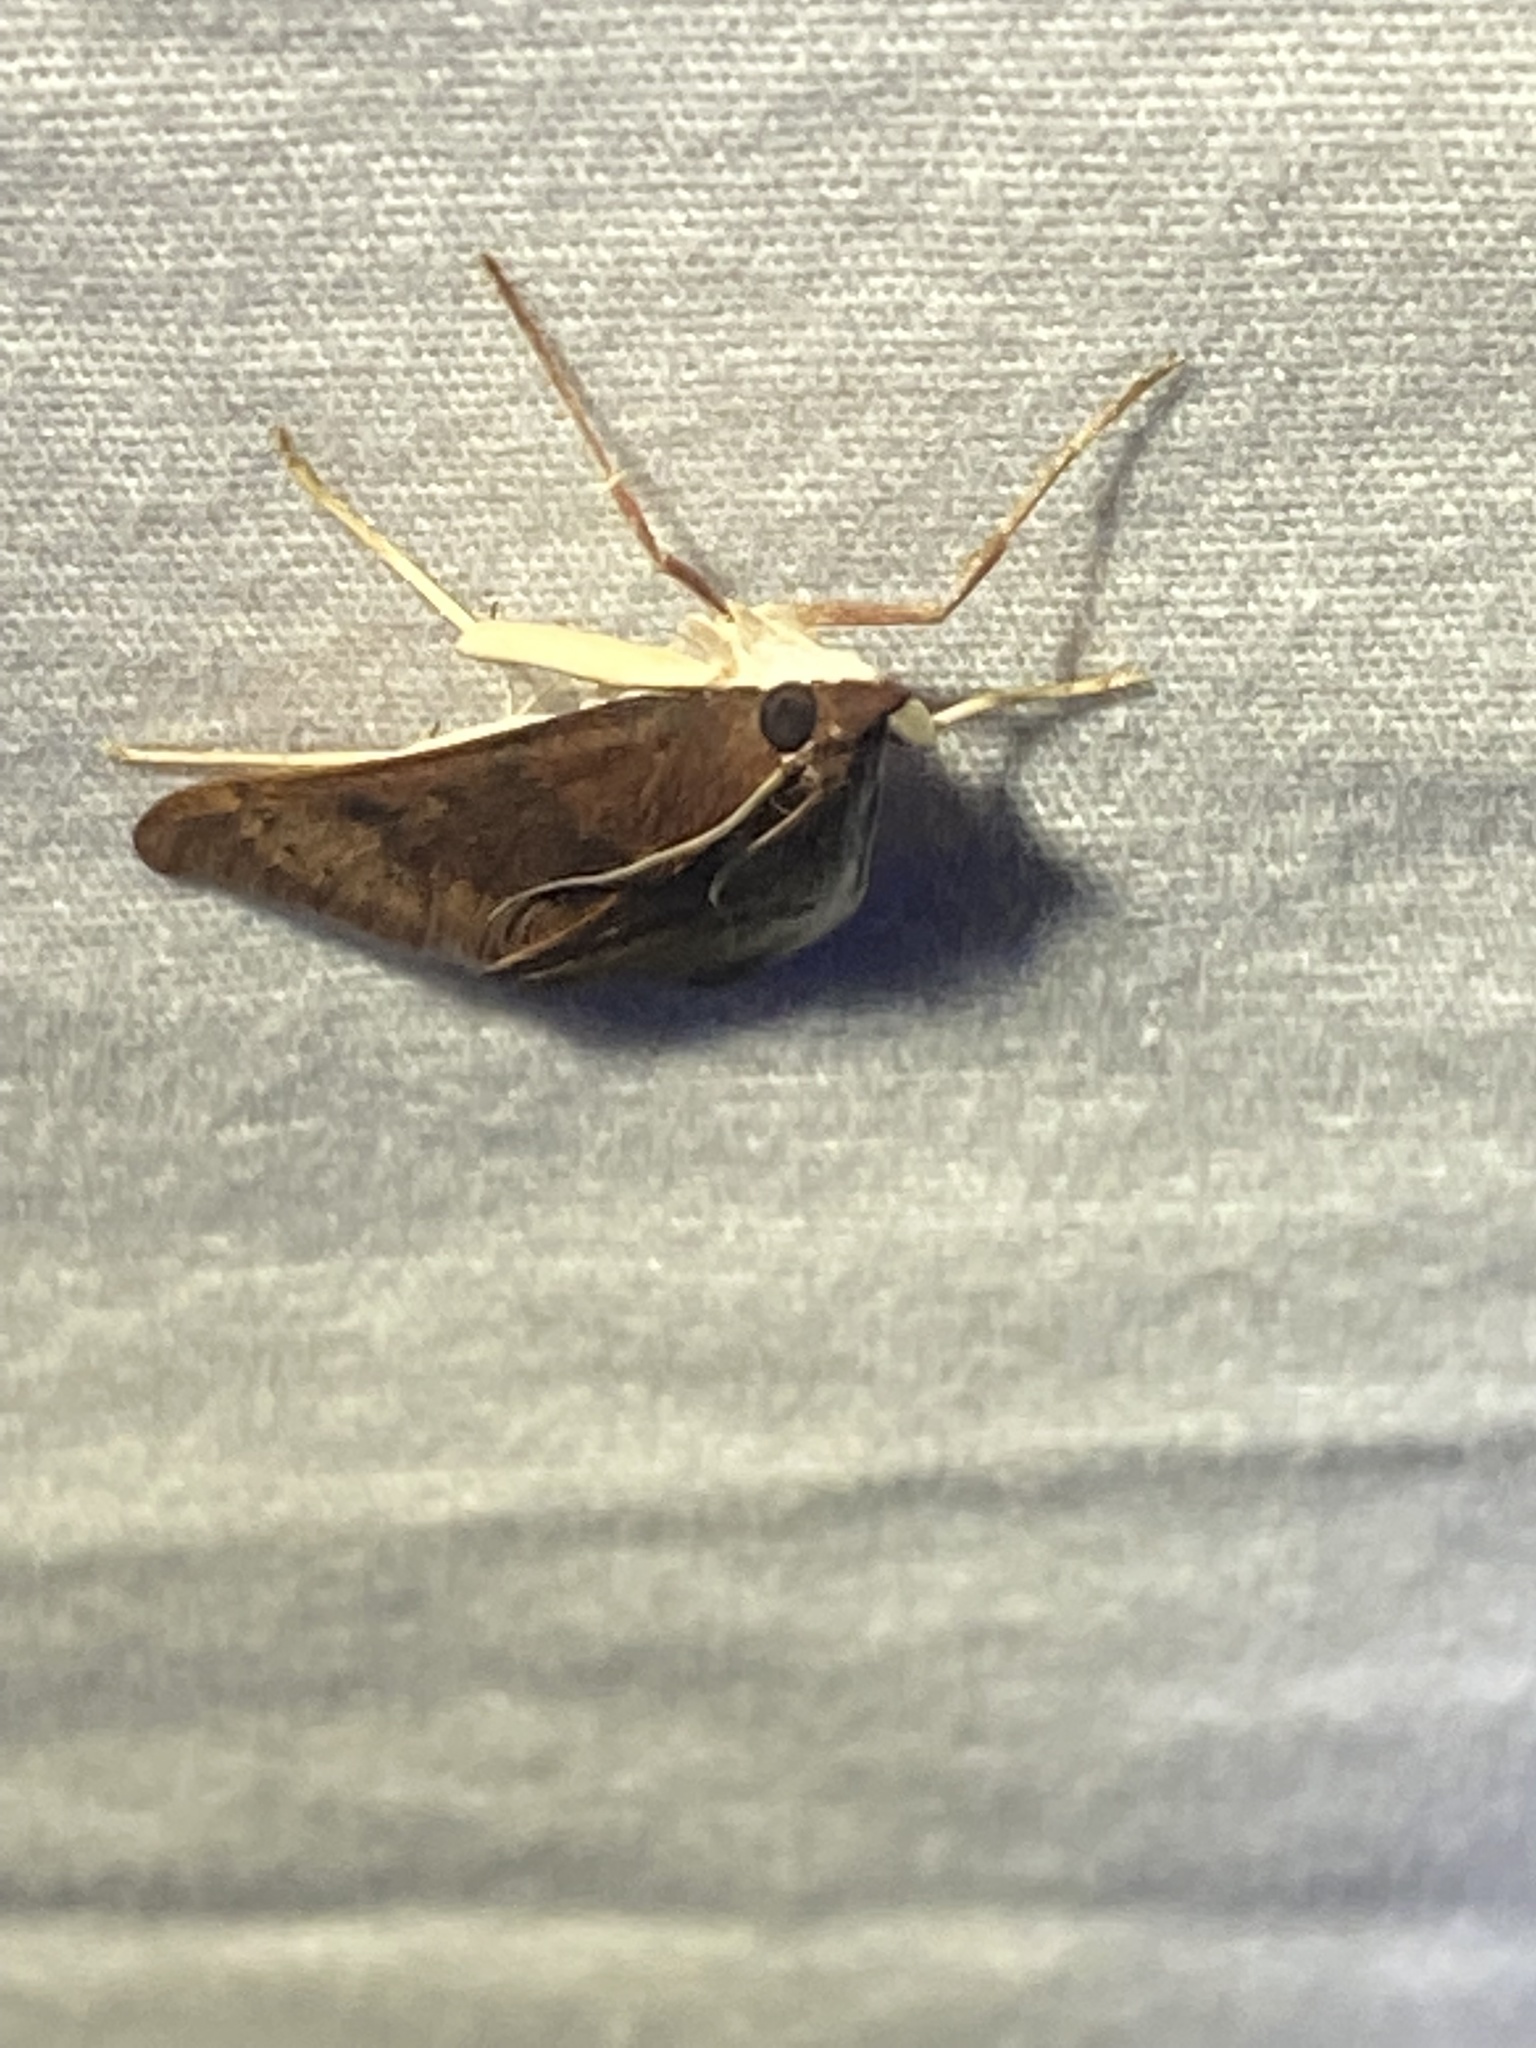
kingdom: Animalia
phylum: Arthropoda
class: Insecta
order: Lepidoptera
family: Crambidae
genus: Uresiphita
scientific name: Uresiphita reversalis
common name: Genista broom moth
